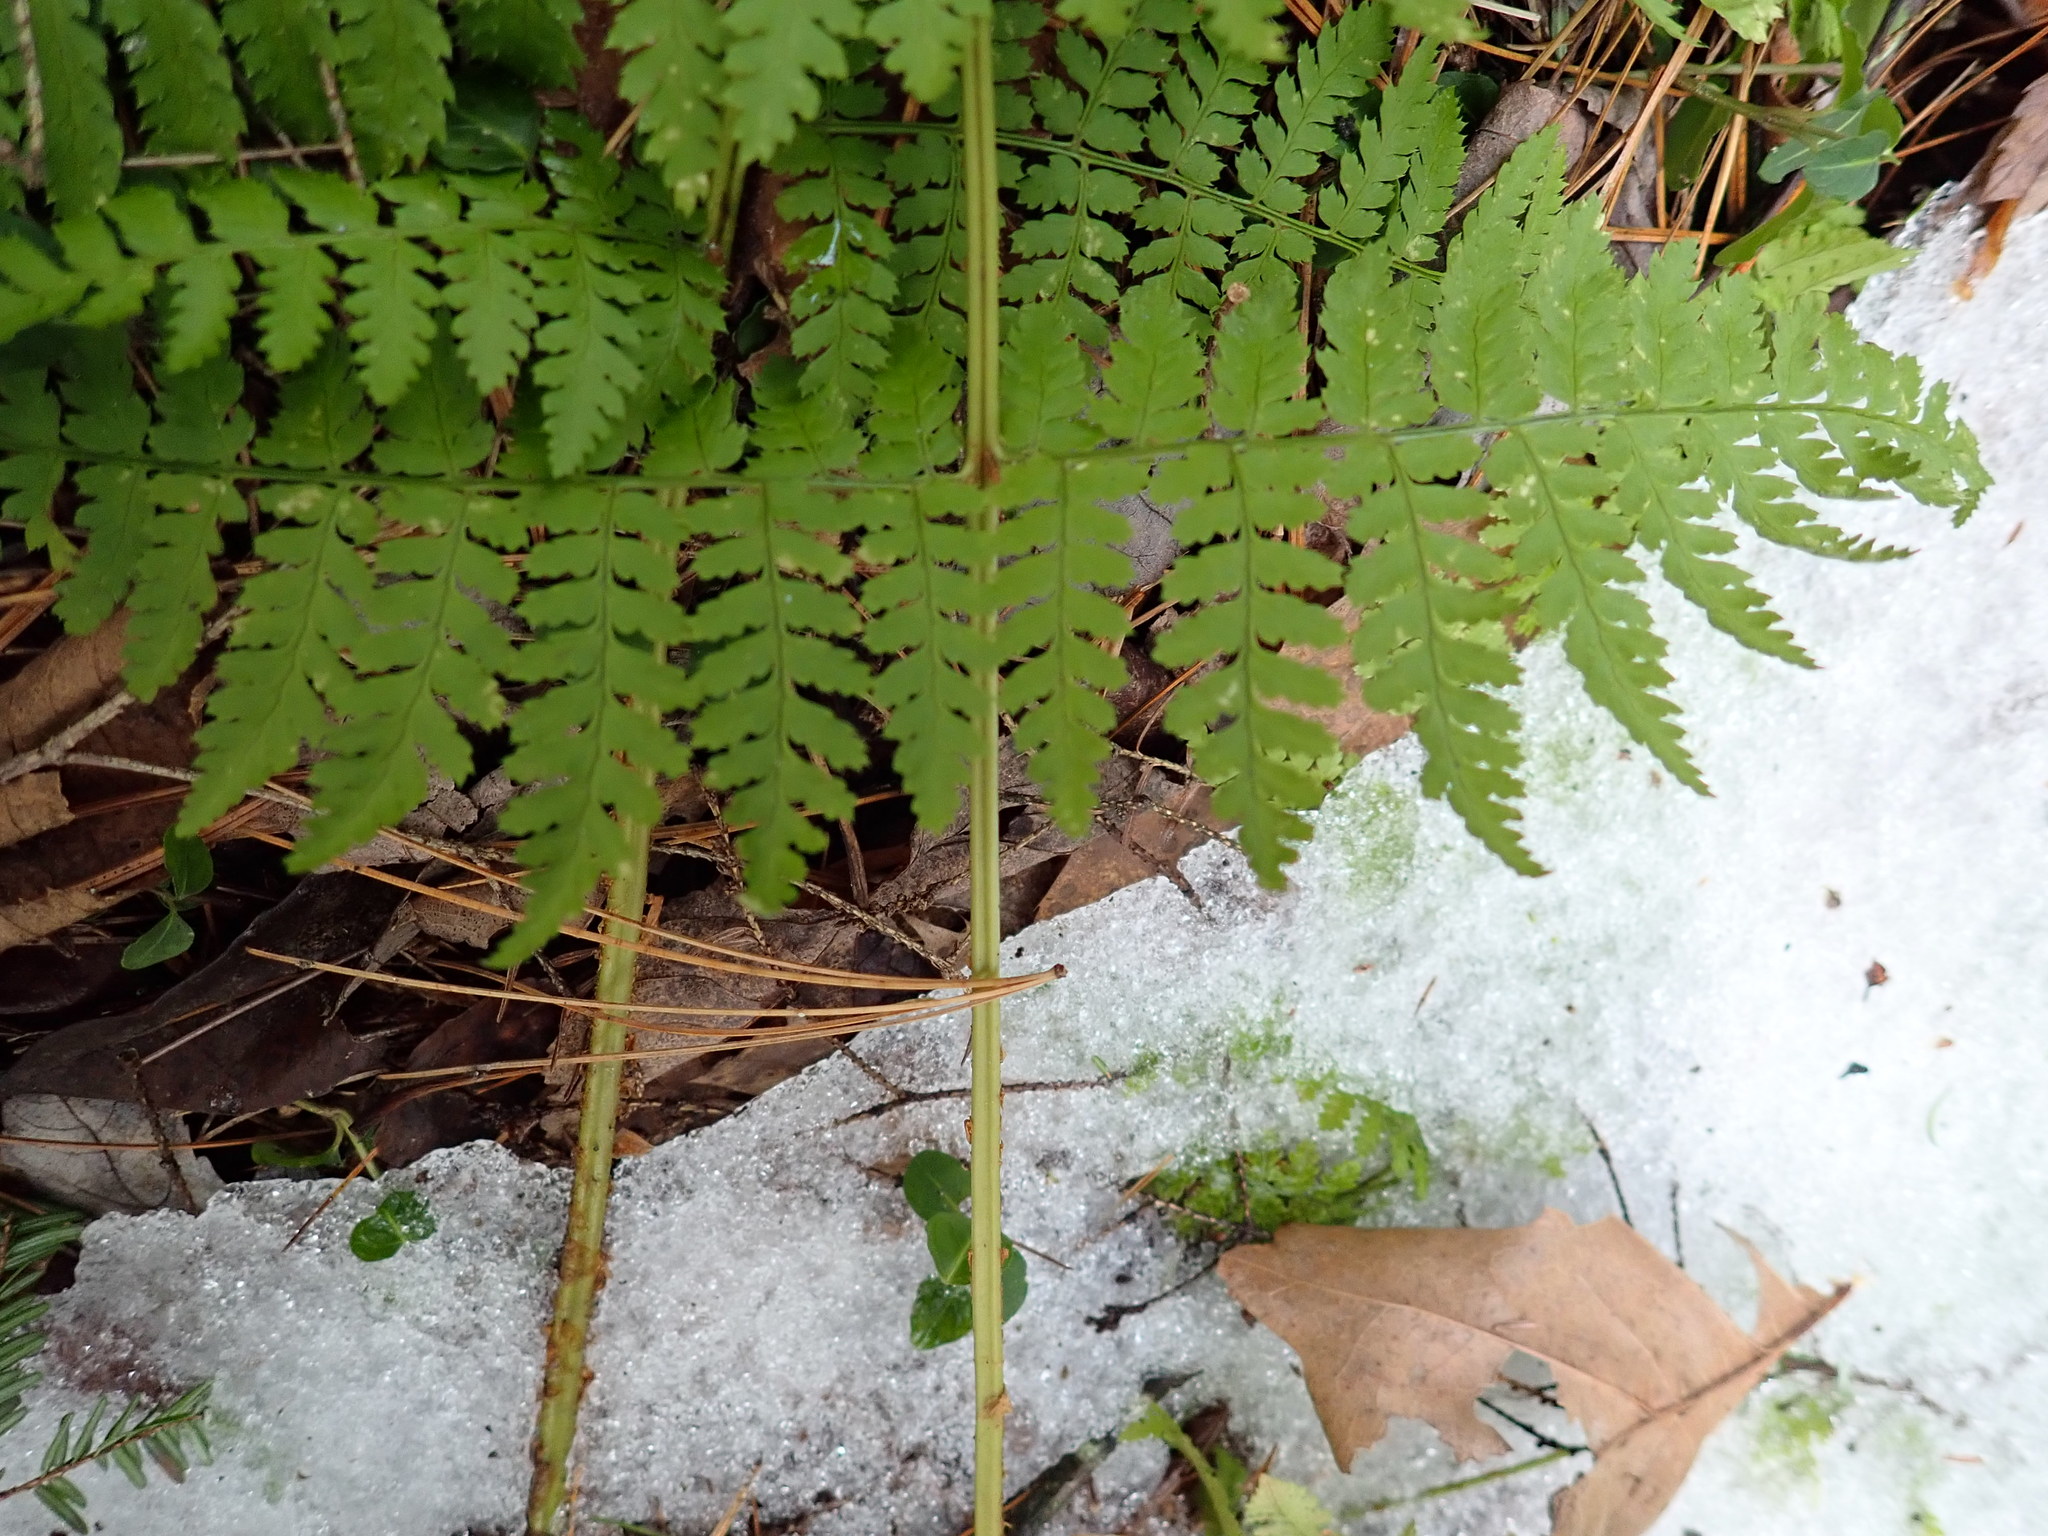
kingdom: Plantae
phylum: Tracheophyta
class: Polypodiopsida
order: Polypodiales
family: Dryopteridaceae
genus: Dryopteris
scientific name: Dryopteris intermedia
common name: Evergreen wood fern
